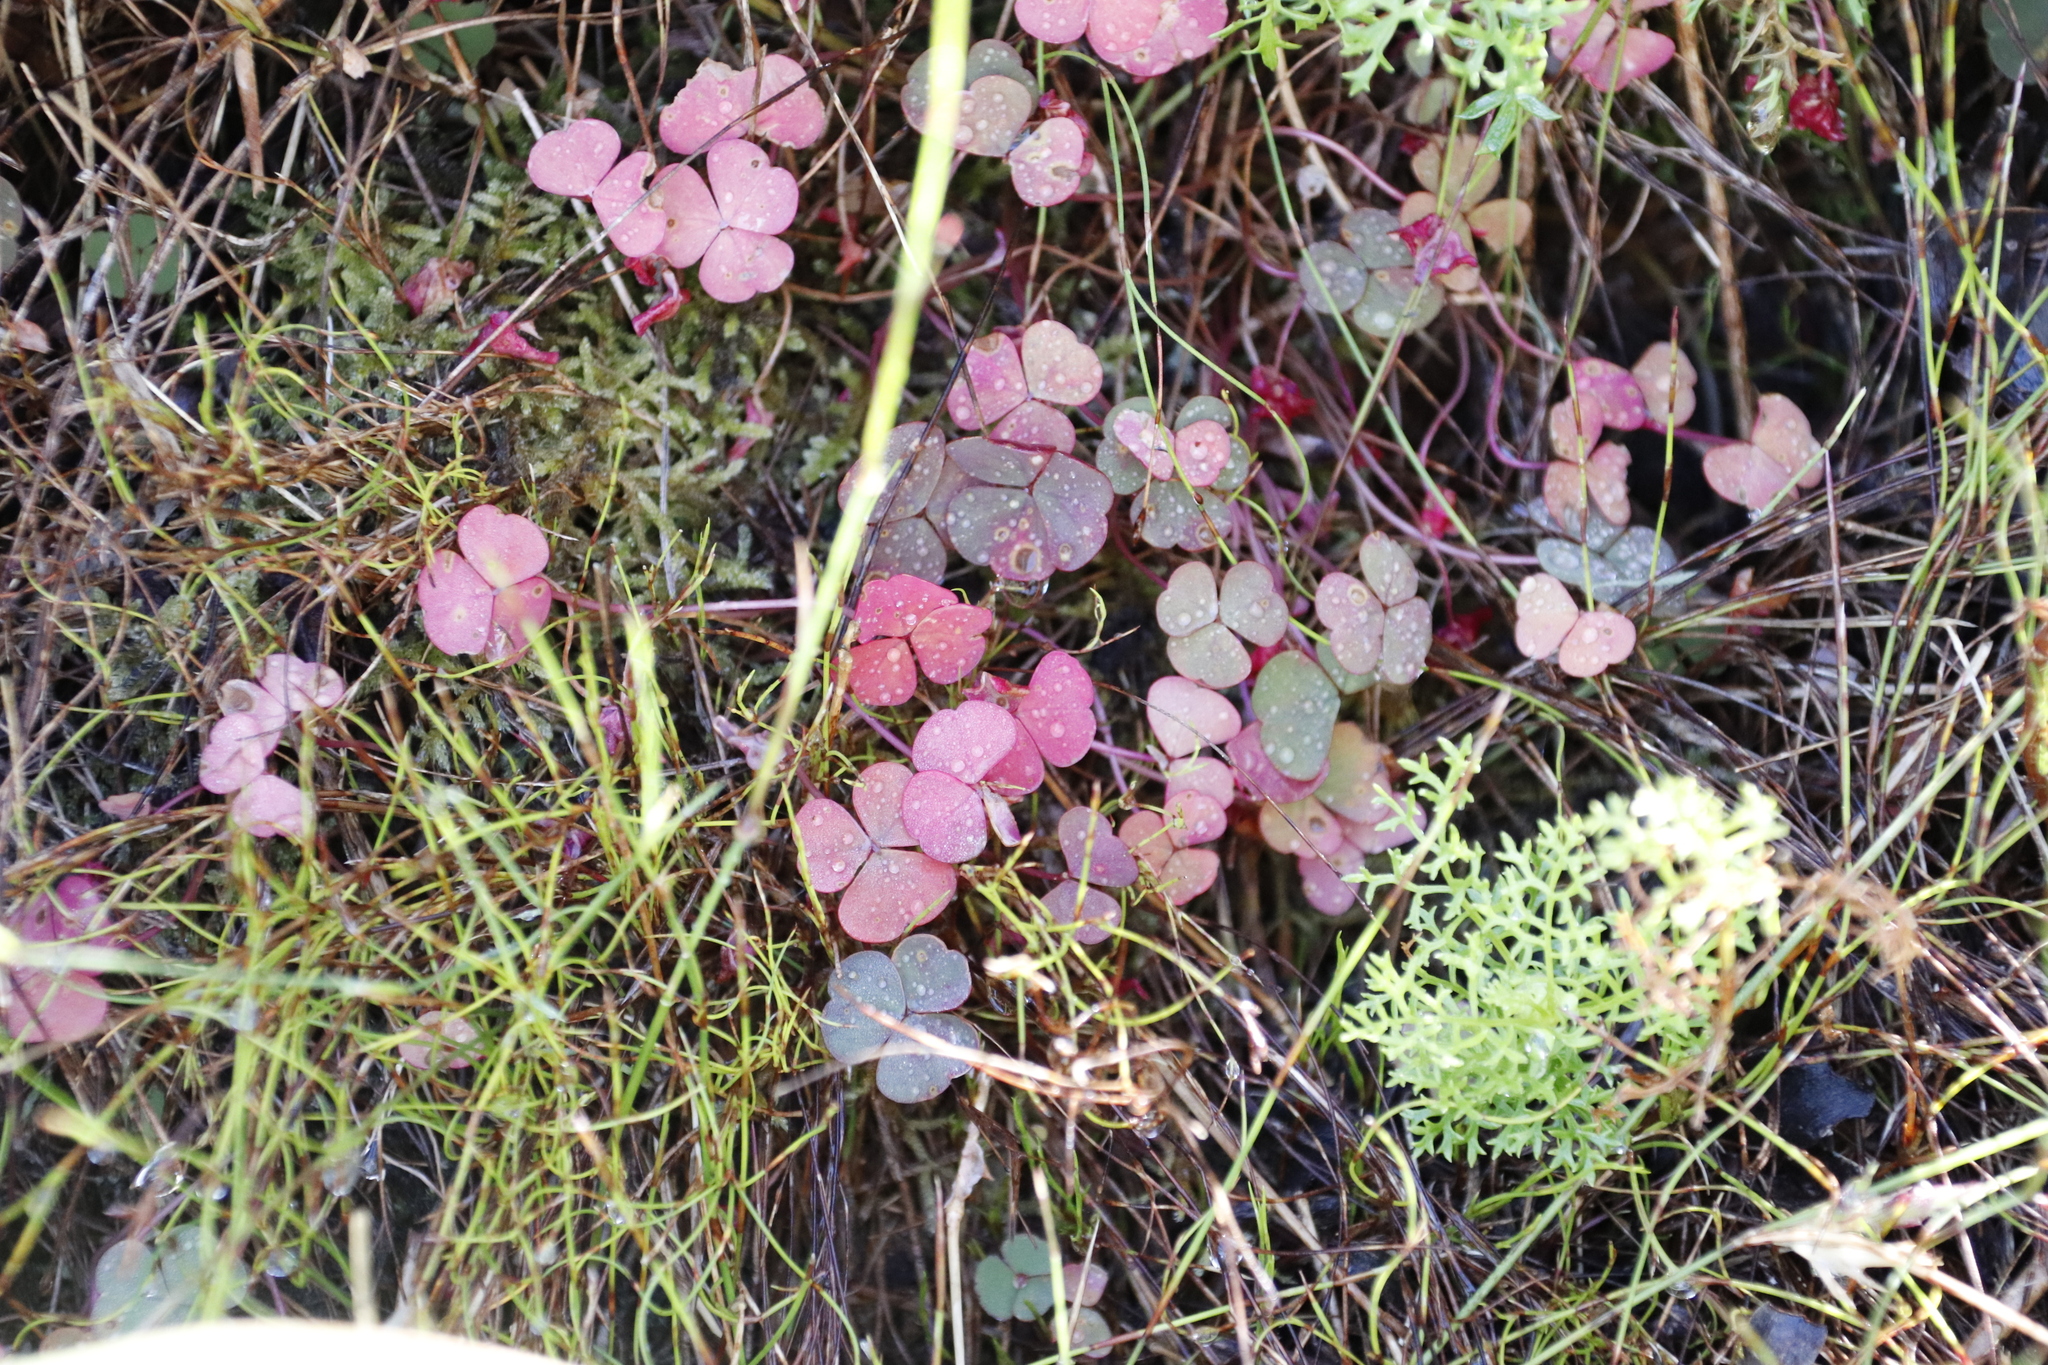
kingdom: Plantae
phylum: Tracheophyta
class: Magnoliopsida
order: Oxalidales
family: Oxalidaceae
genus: Oxalis
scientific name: Oxalis commutata
